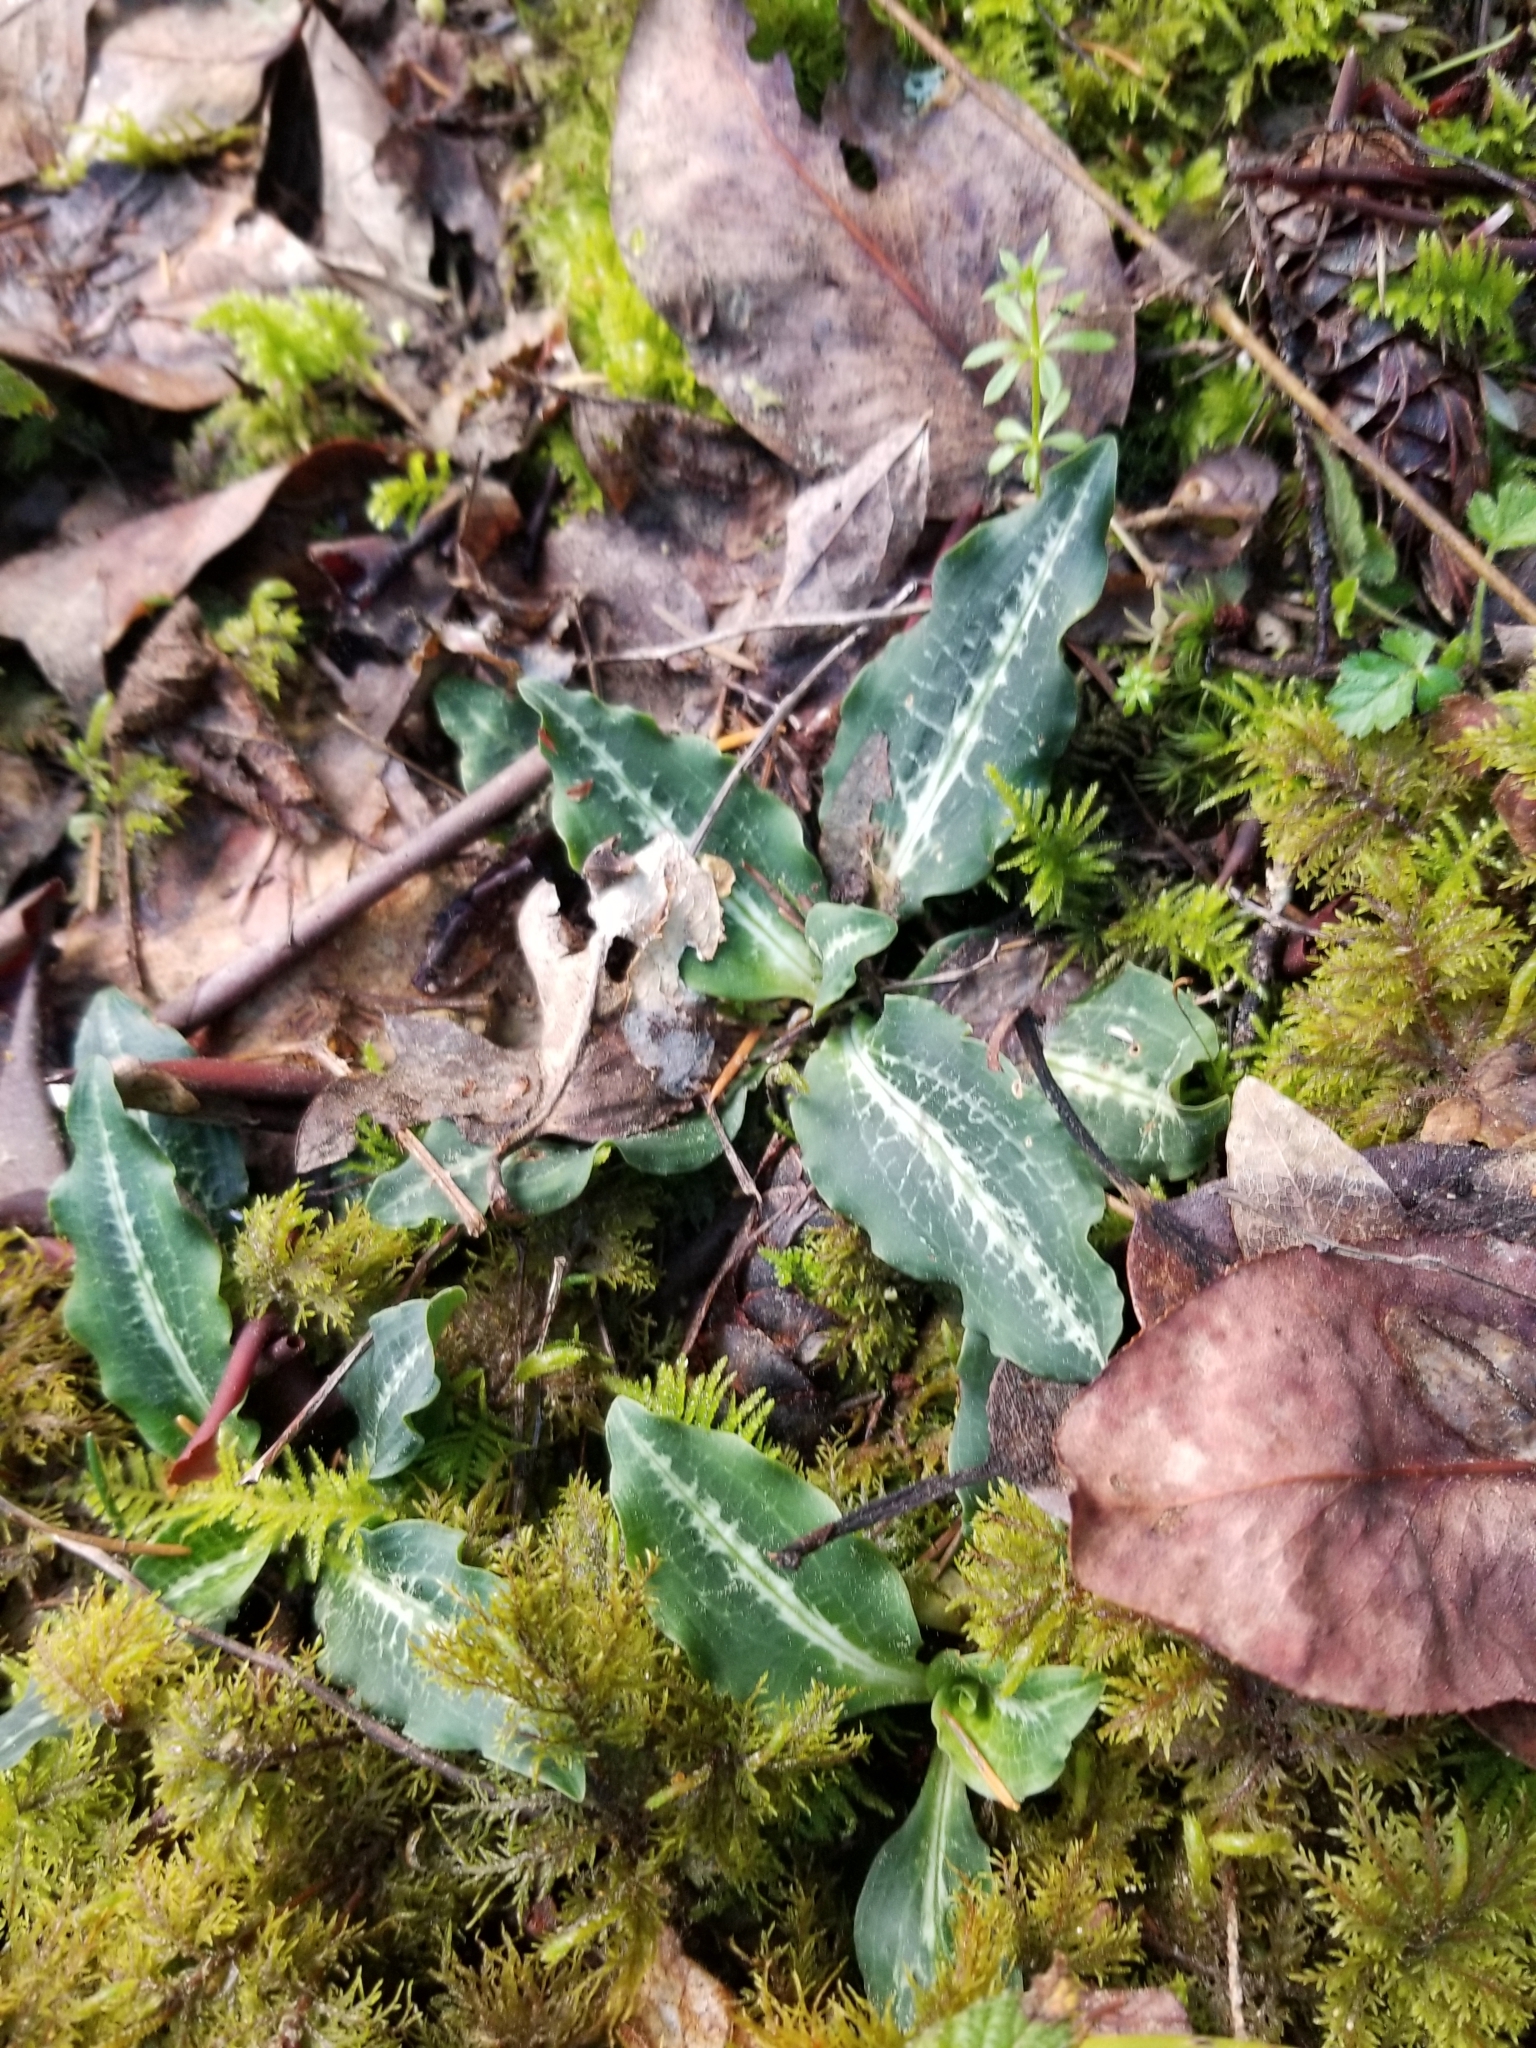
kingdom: Plantae
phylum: Tracheophyta
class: Liliopsida
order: Asparagales
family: Orchidaceae
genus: Goodyera
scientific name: Goodyera oblongifolia
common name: Giant rattlesnake-plantain
